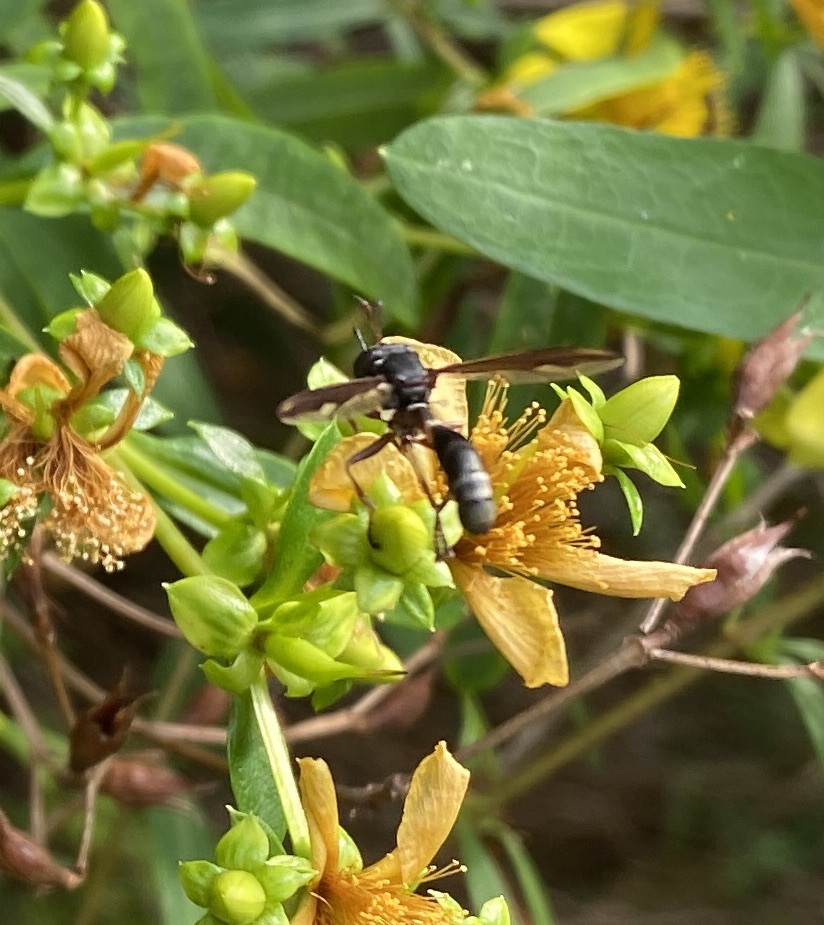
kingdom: Animalia
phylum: Arthropoda
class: Insecta
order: Diptera
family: Conopidae
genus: Physocephala
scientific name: Physocephala furcillata
